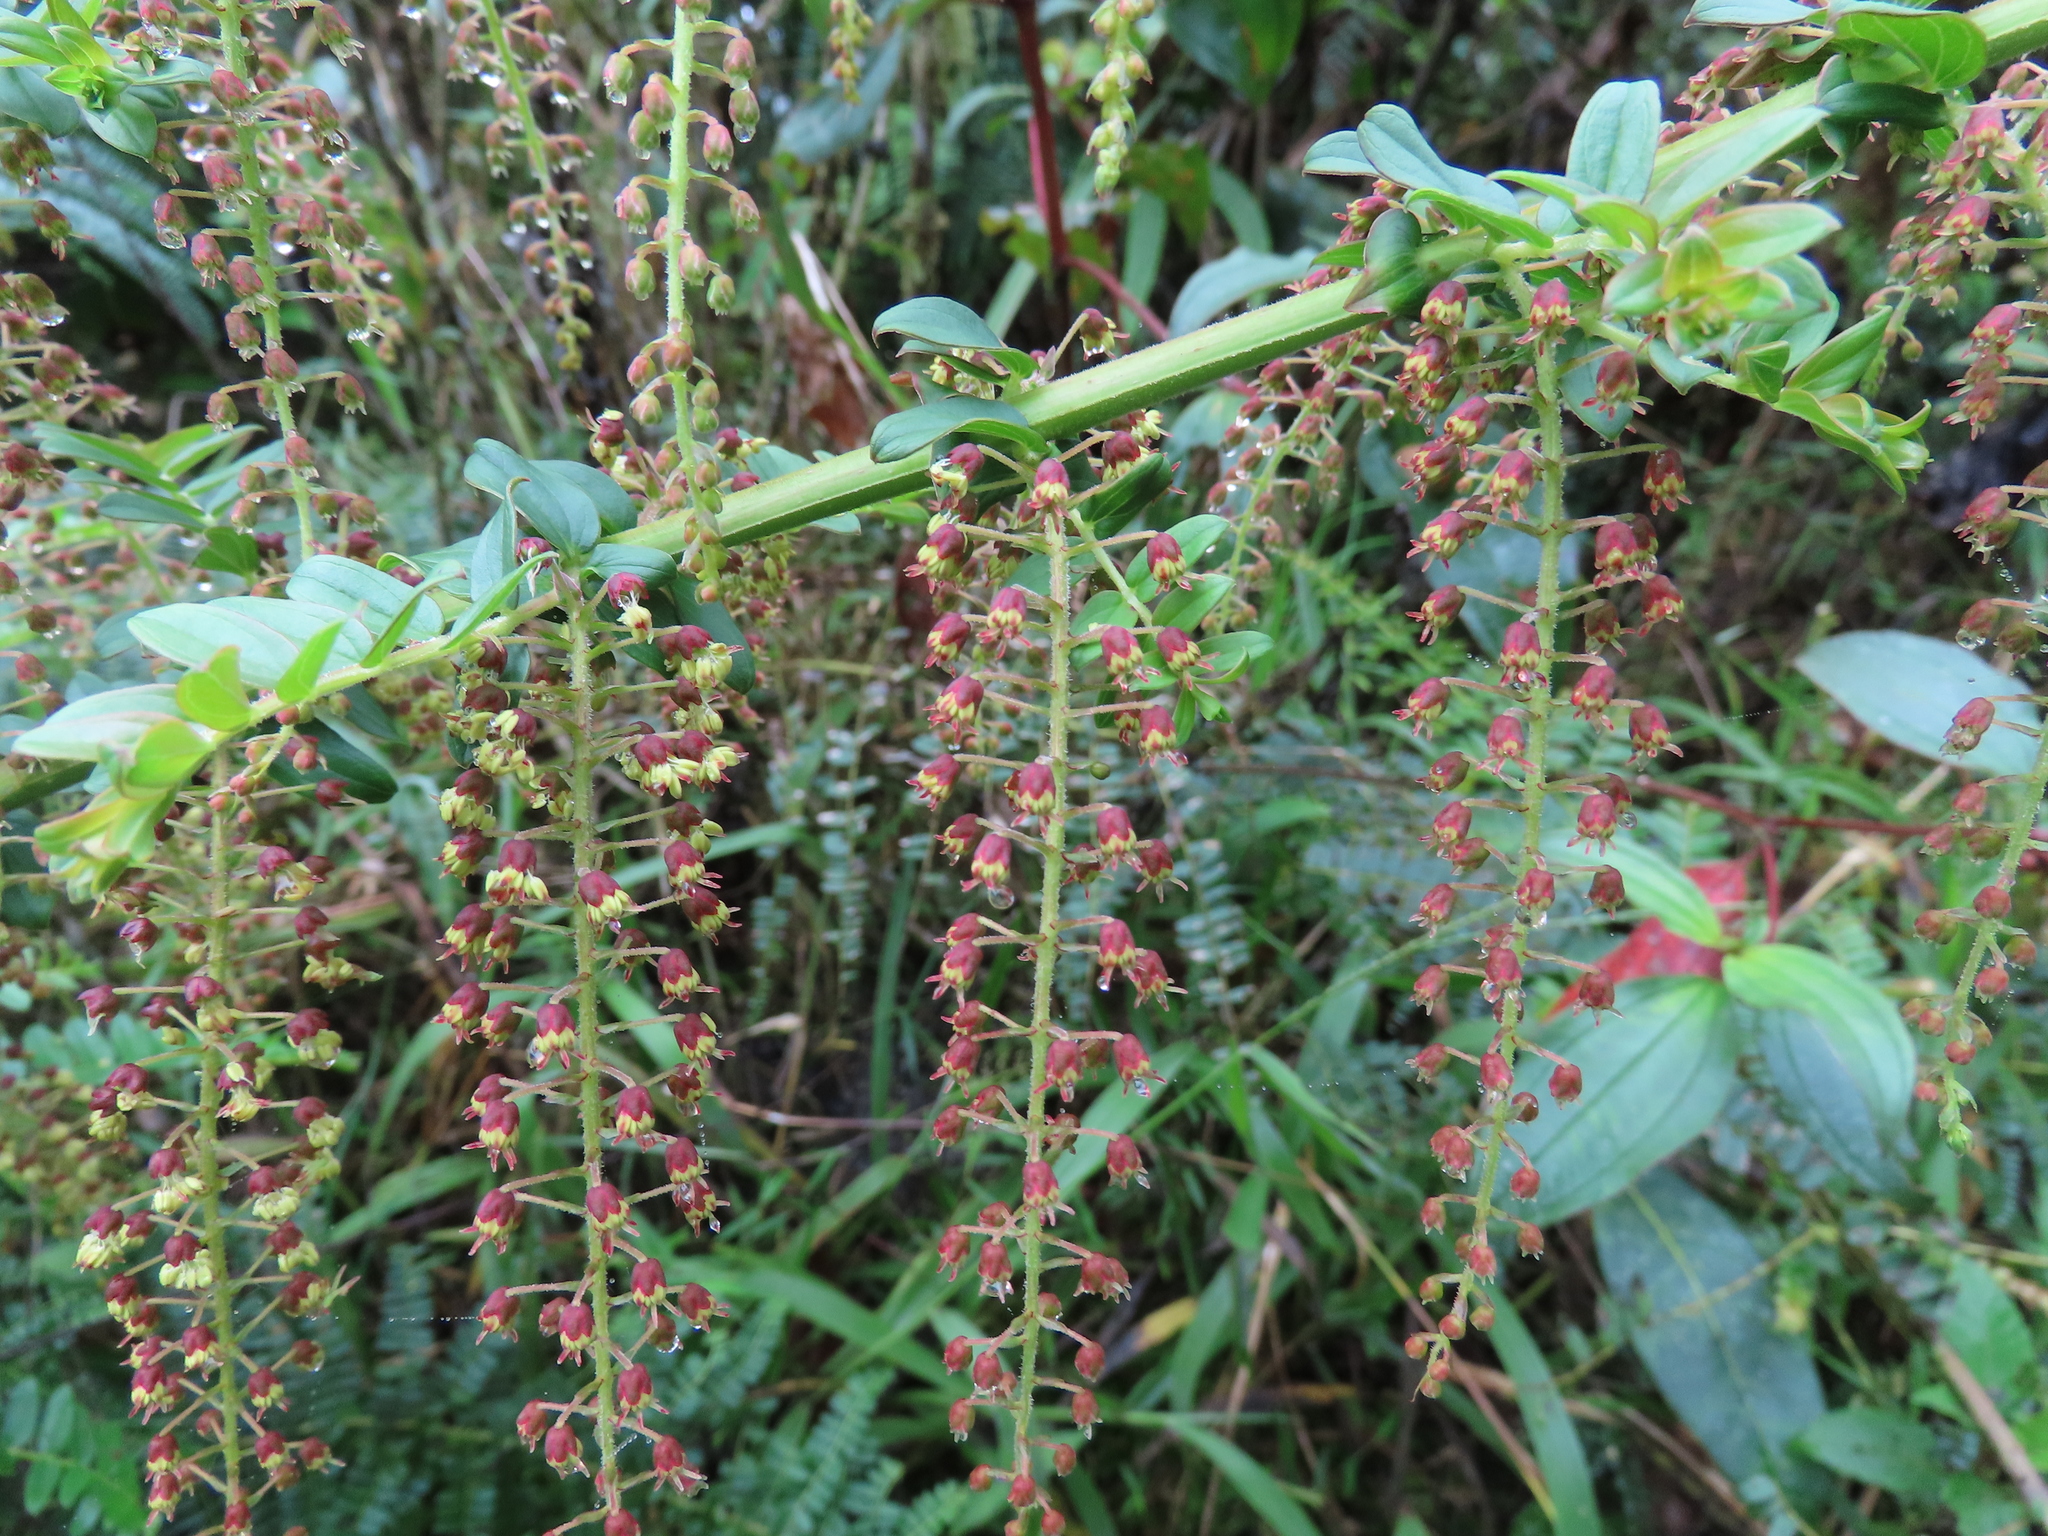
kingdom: Plantae
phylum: Tracheophyta
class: Magnoliopsida
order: Cucurbitales
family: Coriariaceae
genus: Coriaria
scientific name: Coriaria ruscifolia
